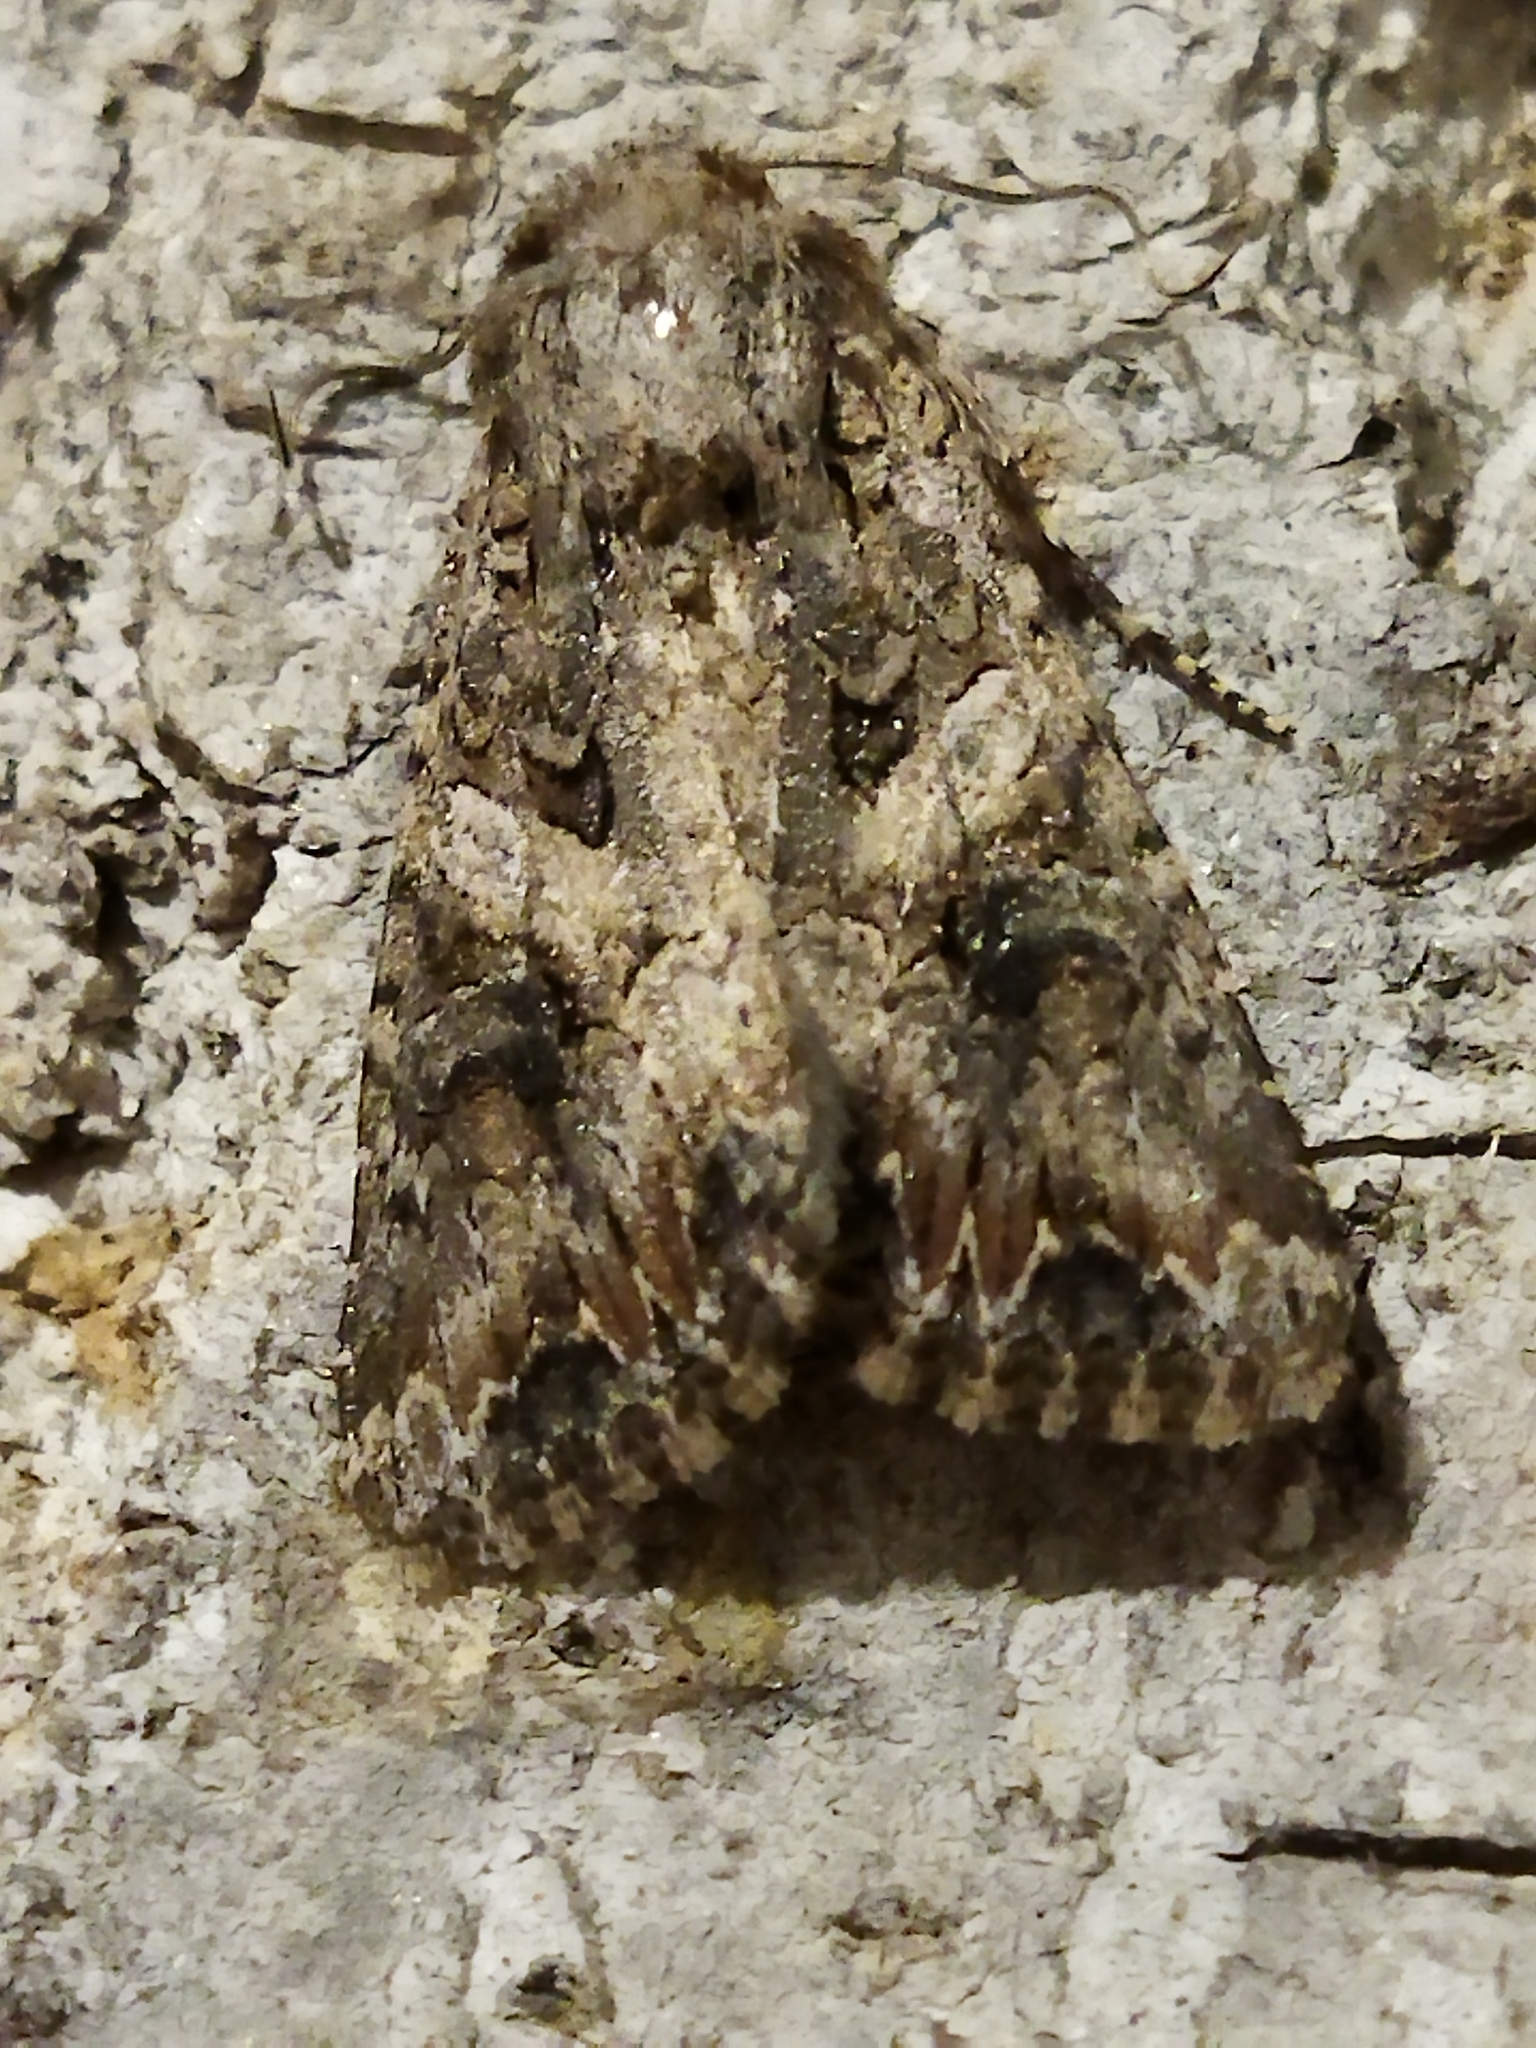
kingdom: Animalia
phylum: Arthropoda
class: Insecta
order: Lepidoptera
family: Noctuidae
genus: Anarta
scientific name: Anarta trifolii
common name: Clover cutworm moth
